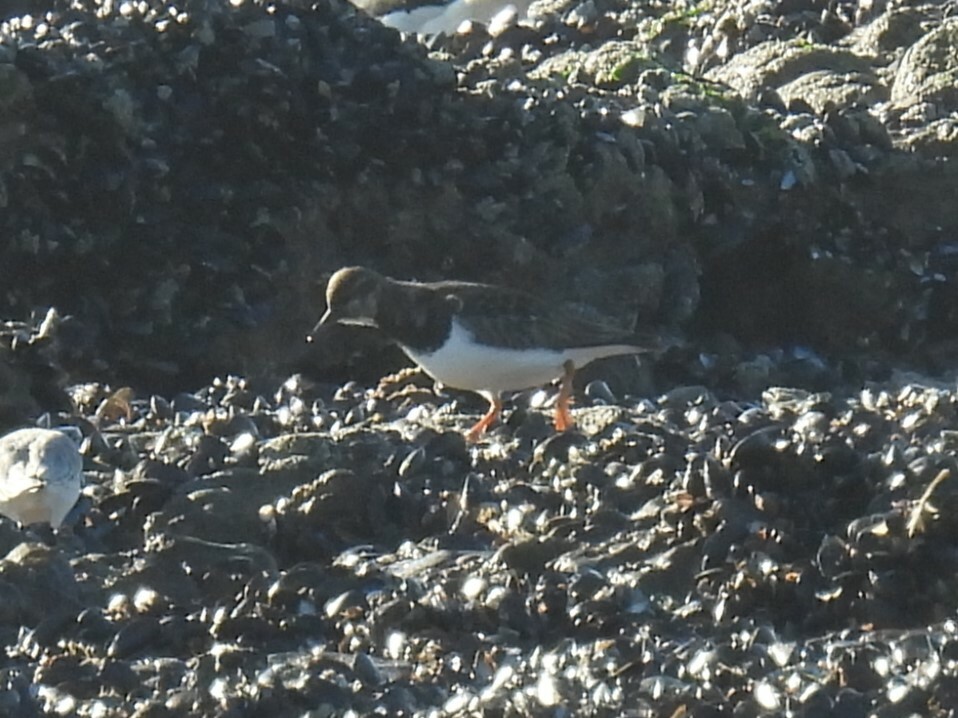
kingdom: Animalia
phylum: Chordata
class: Aves
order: Charadriiformes
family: Scolopacidae
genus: Arenaria
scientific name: Arenaria interpres
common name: Ruddy turnstone
